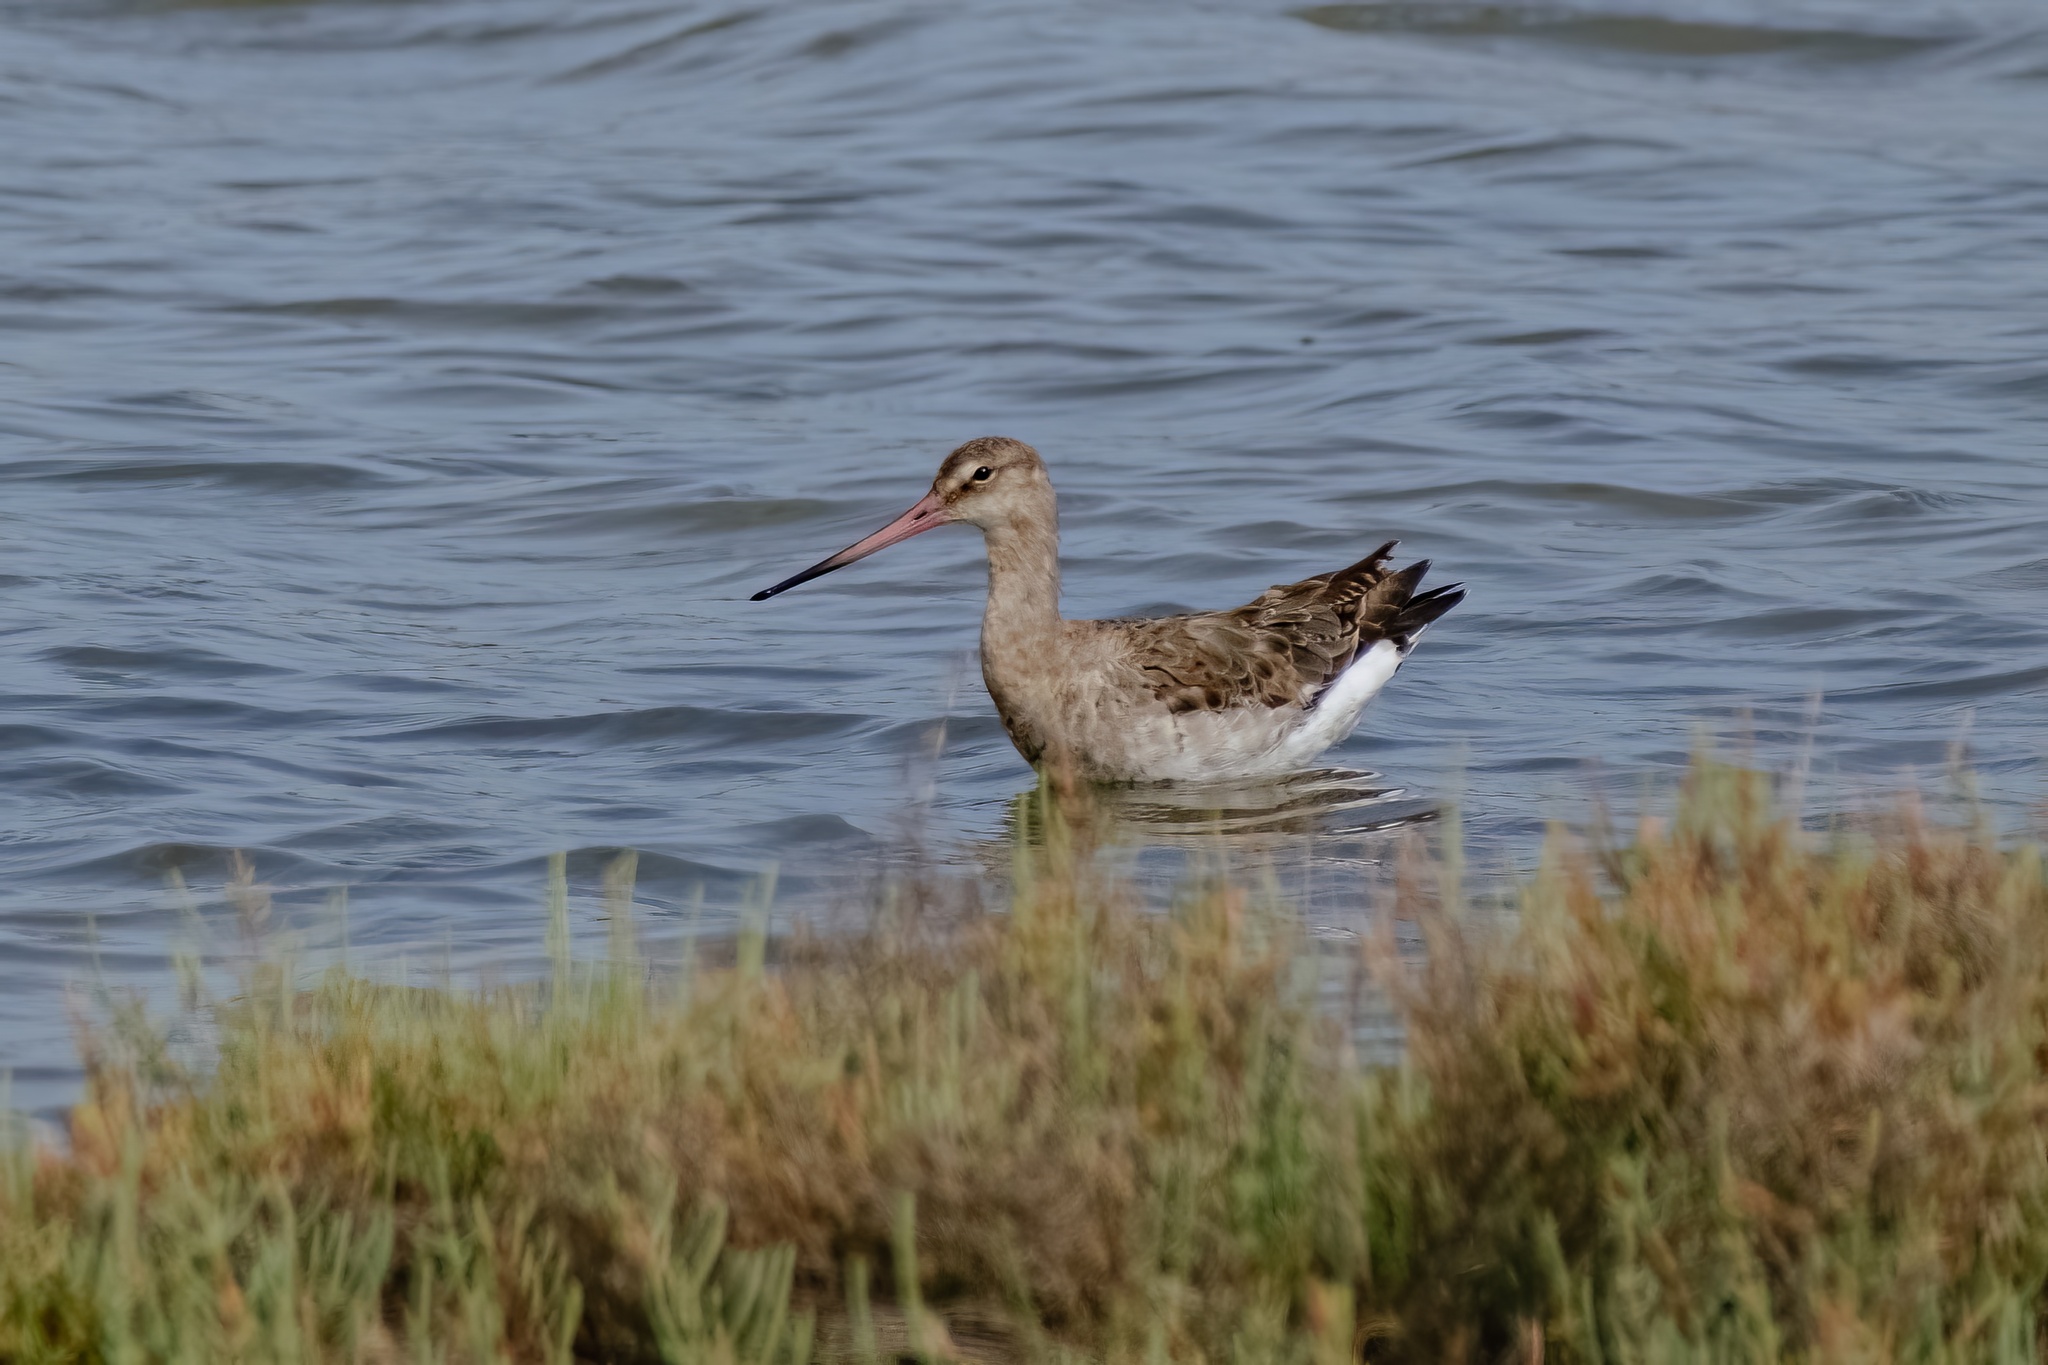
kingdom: Animalia
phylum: Chordata
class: Aves
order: Charadriiformes
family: Scolopacidae
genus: Limosa
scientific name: Limosa limosa
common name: Black-tailed godwit
